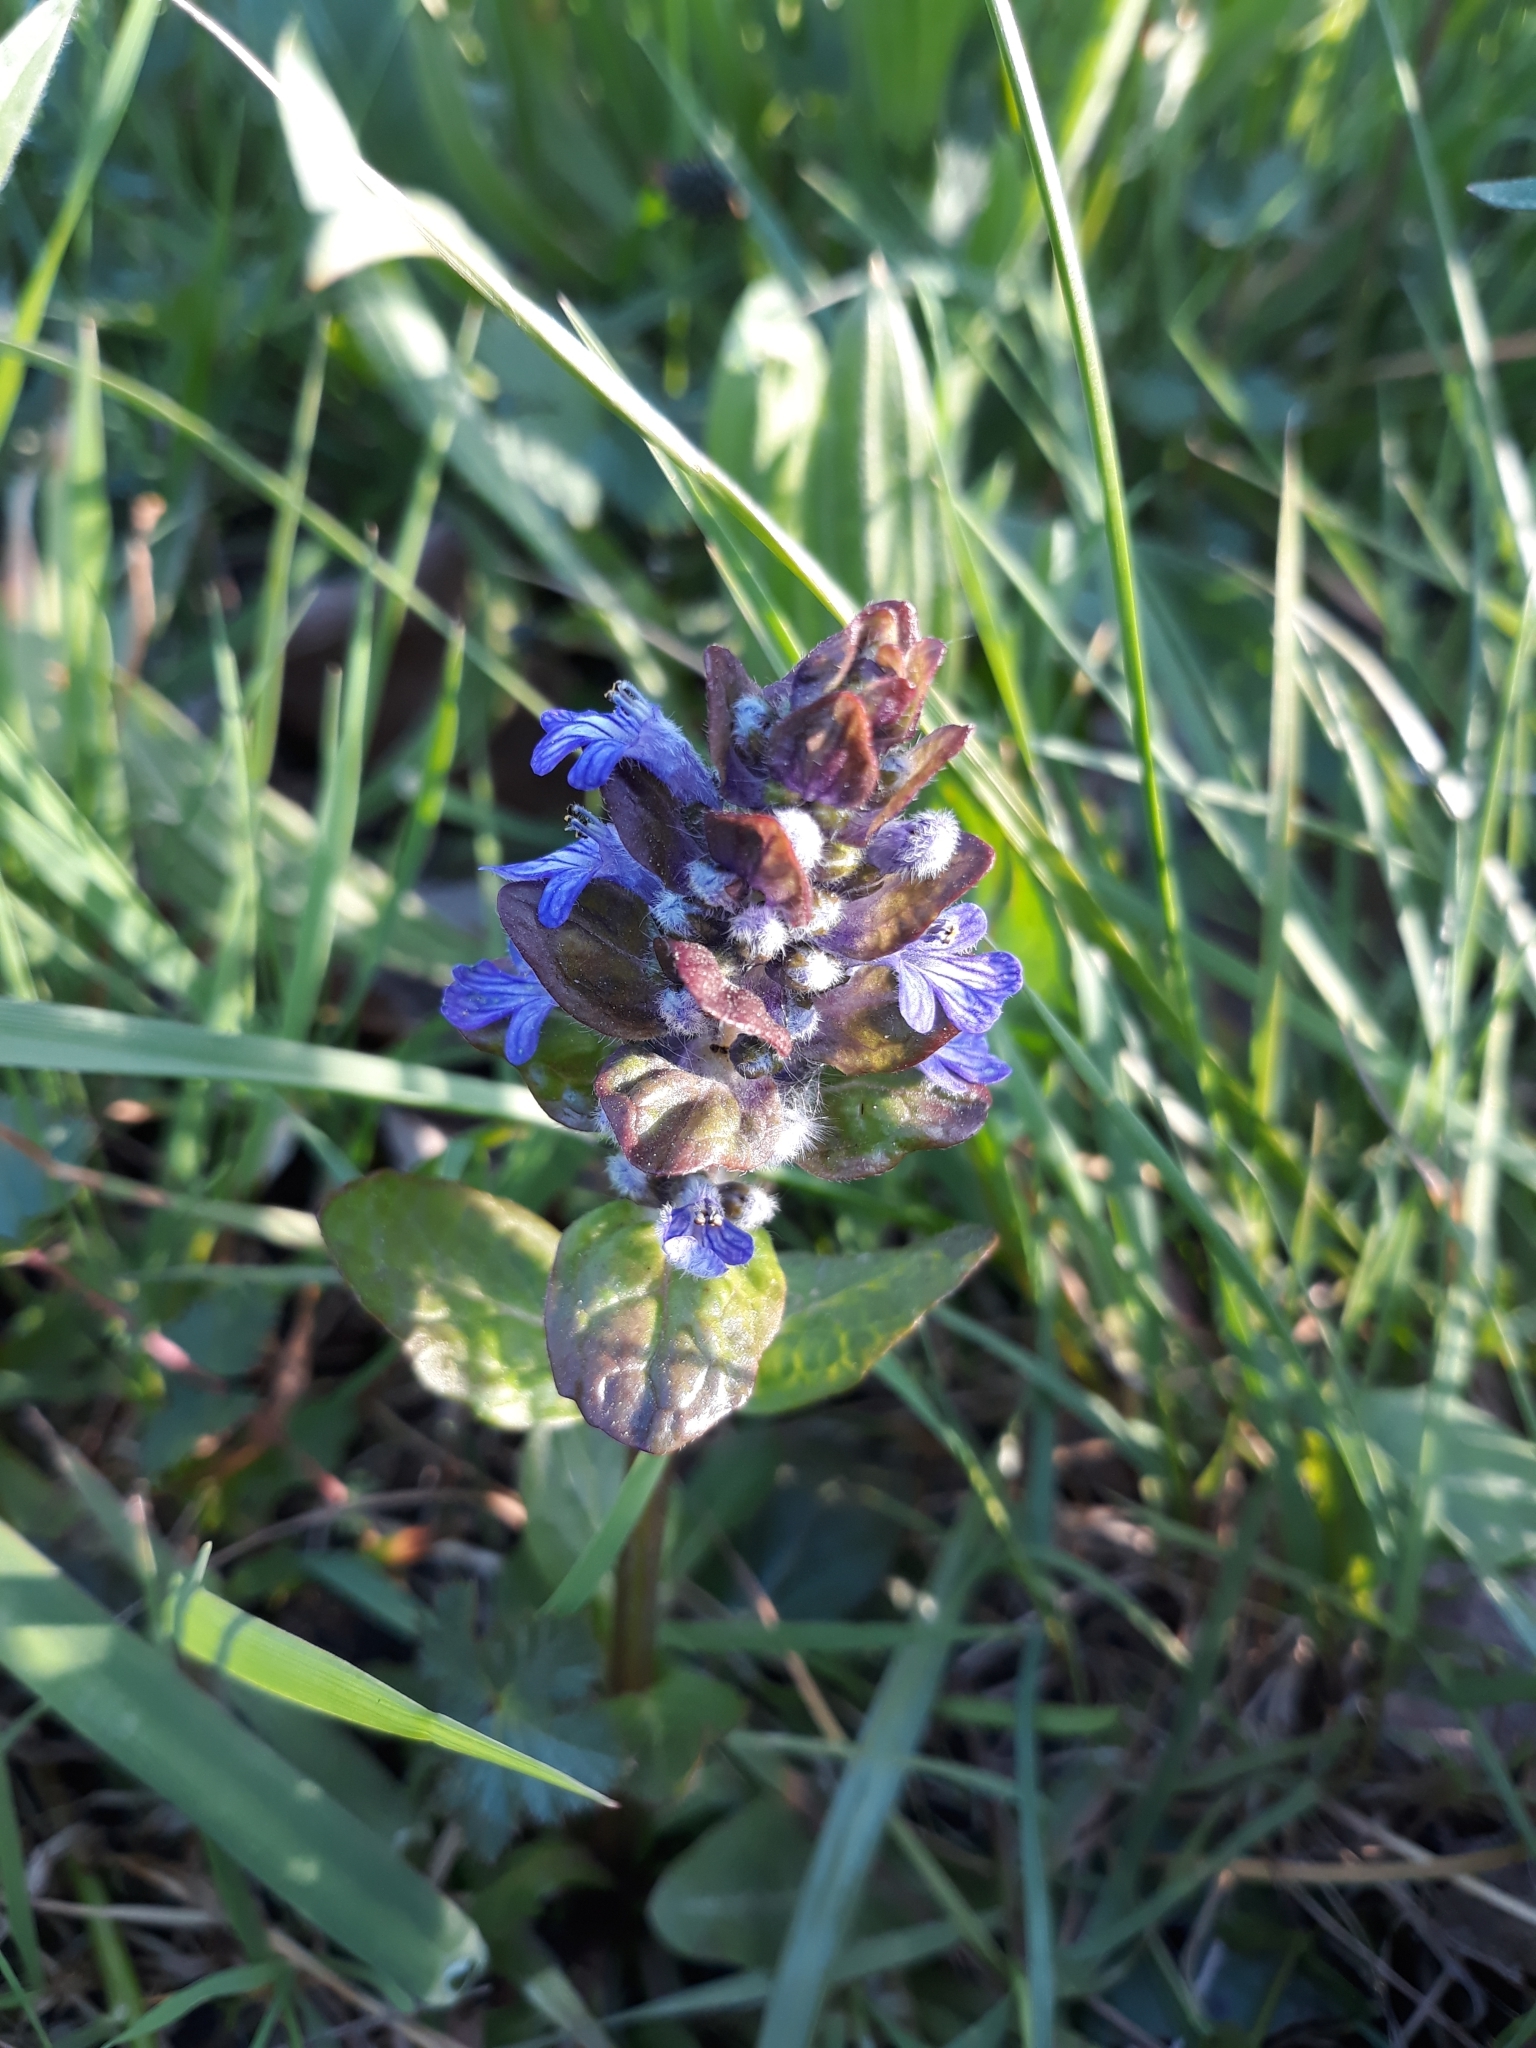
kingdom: Plantae
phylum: Tracheophyta
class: Magnoliopsida
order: Lamiales
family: Lamiaceae
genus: Ajuga
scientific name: Ajuga reptans
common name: Bugle
